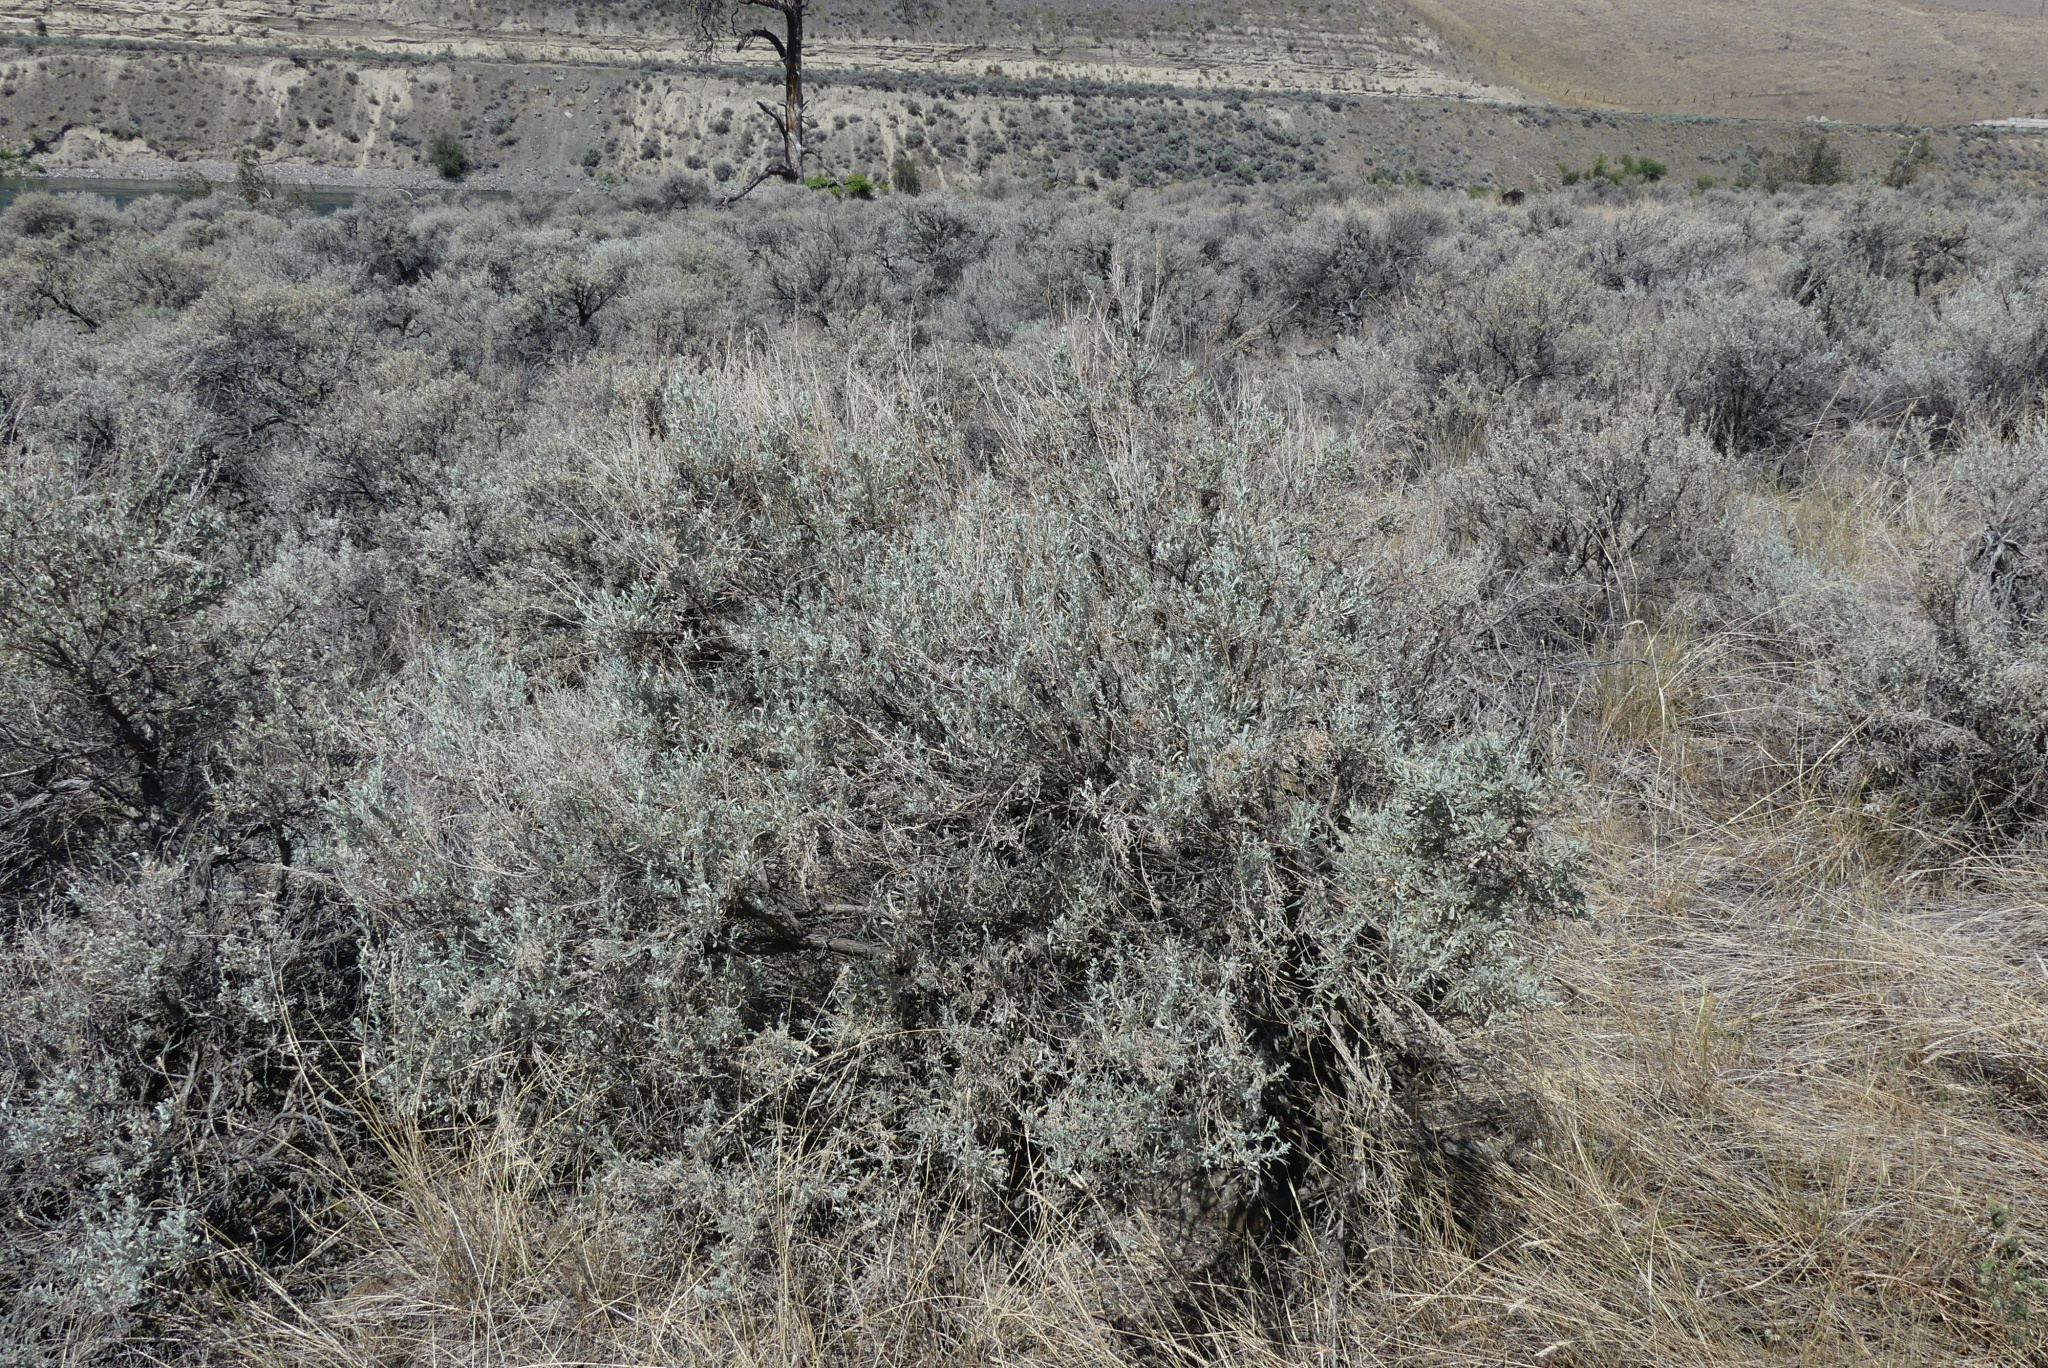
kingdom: Plantae
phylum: Tracheophyta
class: Magnoliopsida
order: Asterales
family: Asteraceae
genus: Artemisia
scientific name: Artemisia tridentata
